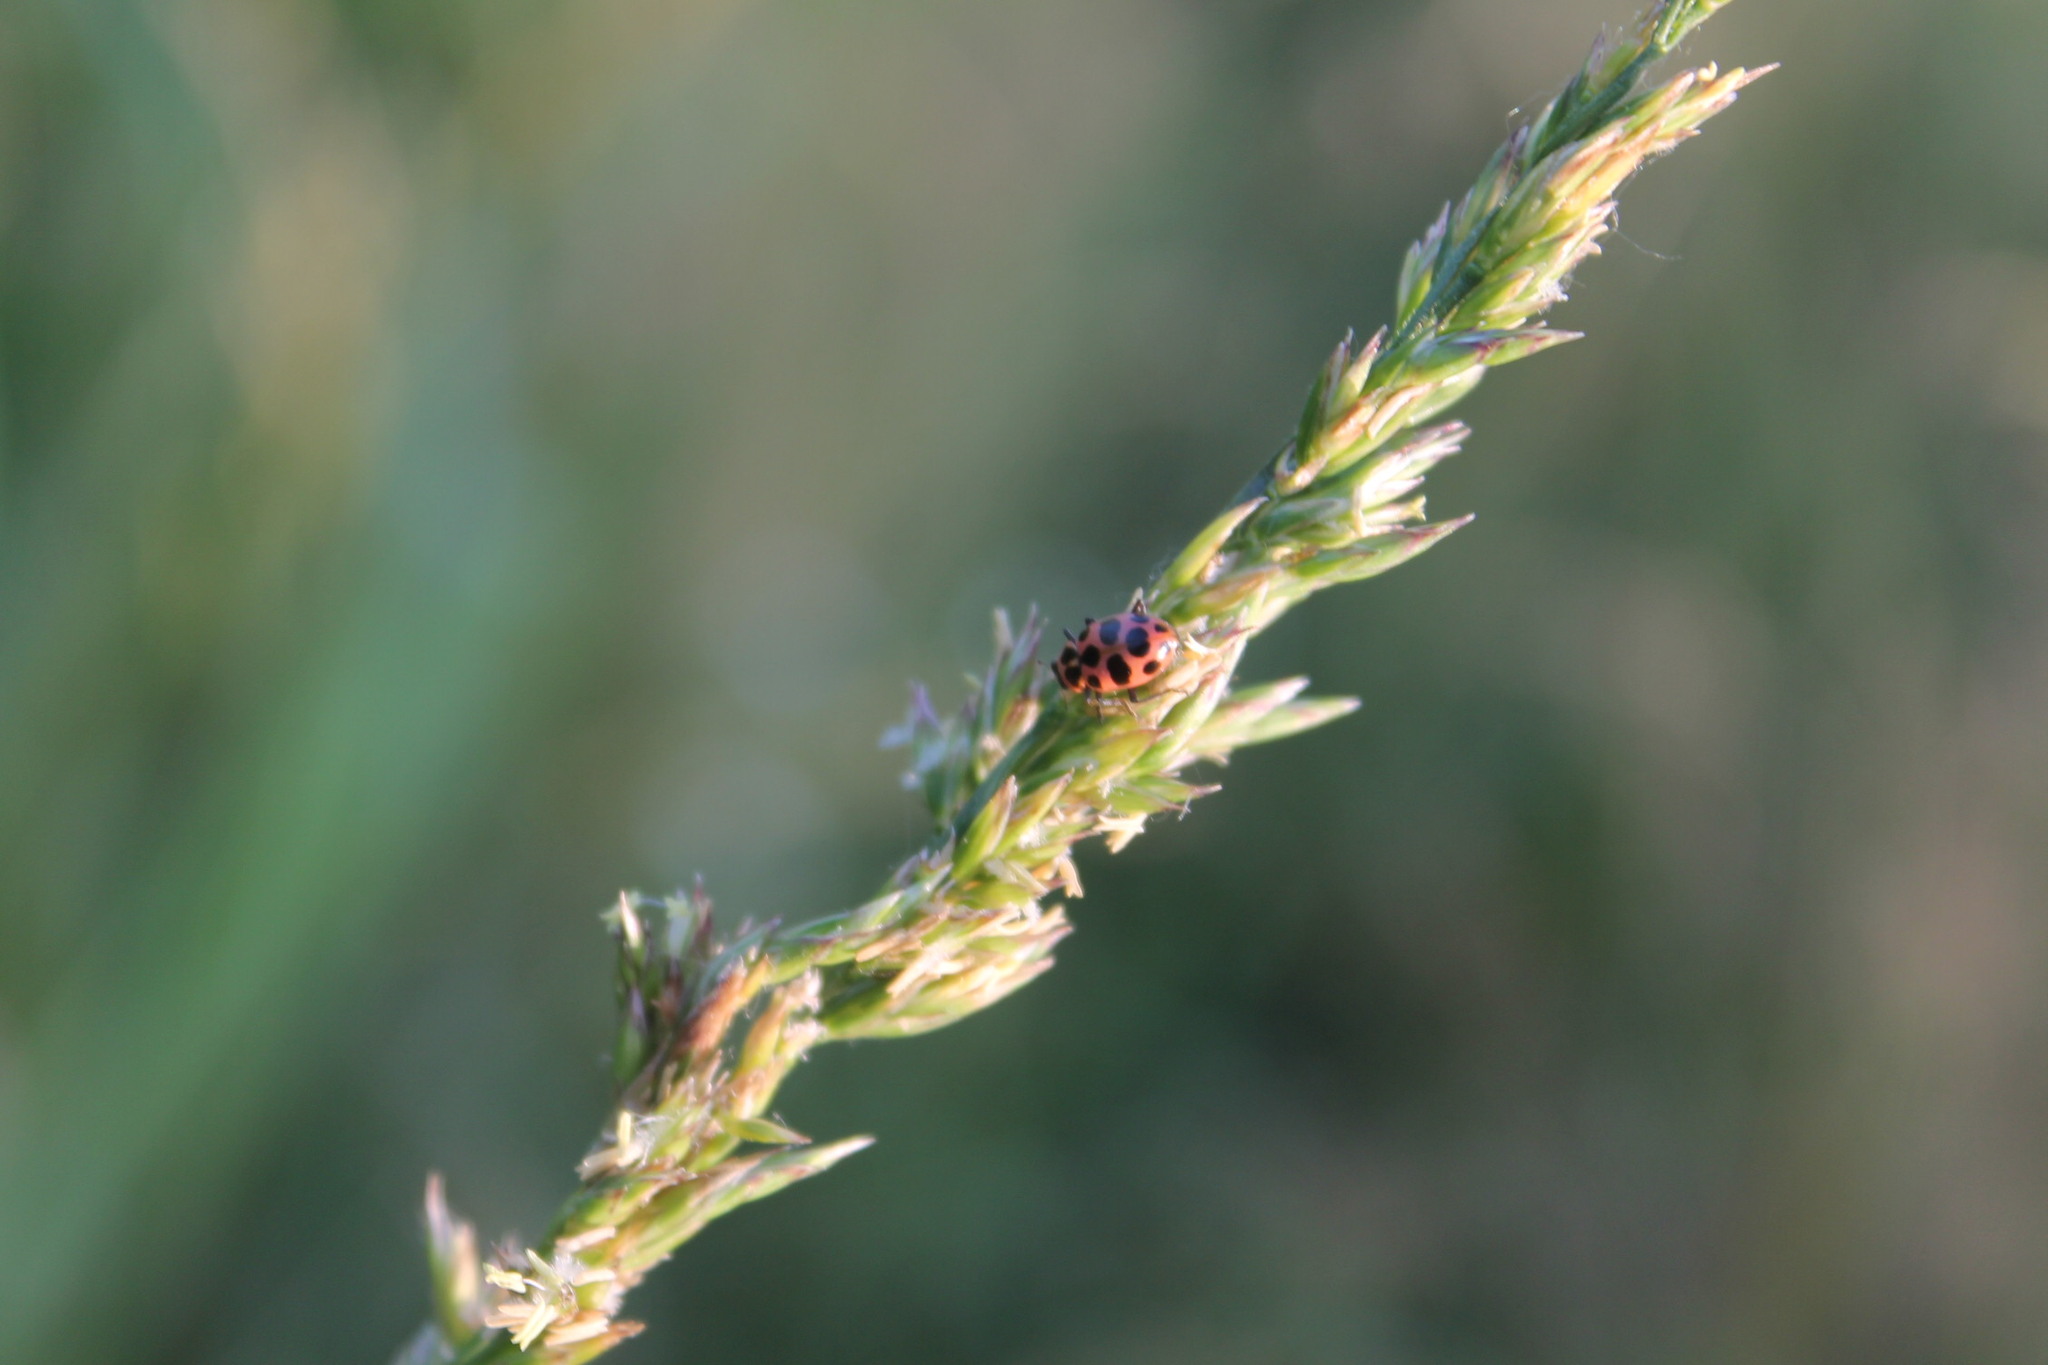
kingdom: Animalia
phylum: Arthropoda
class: Insecta
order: Coleoptera
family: Coccinellidae
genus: Coleomegilla
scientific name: Coleomegilla maculata
